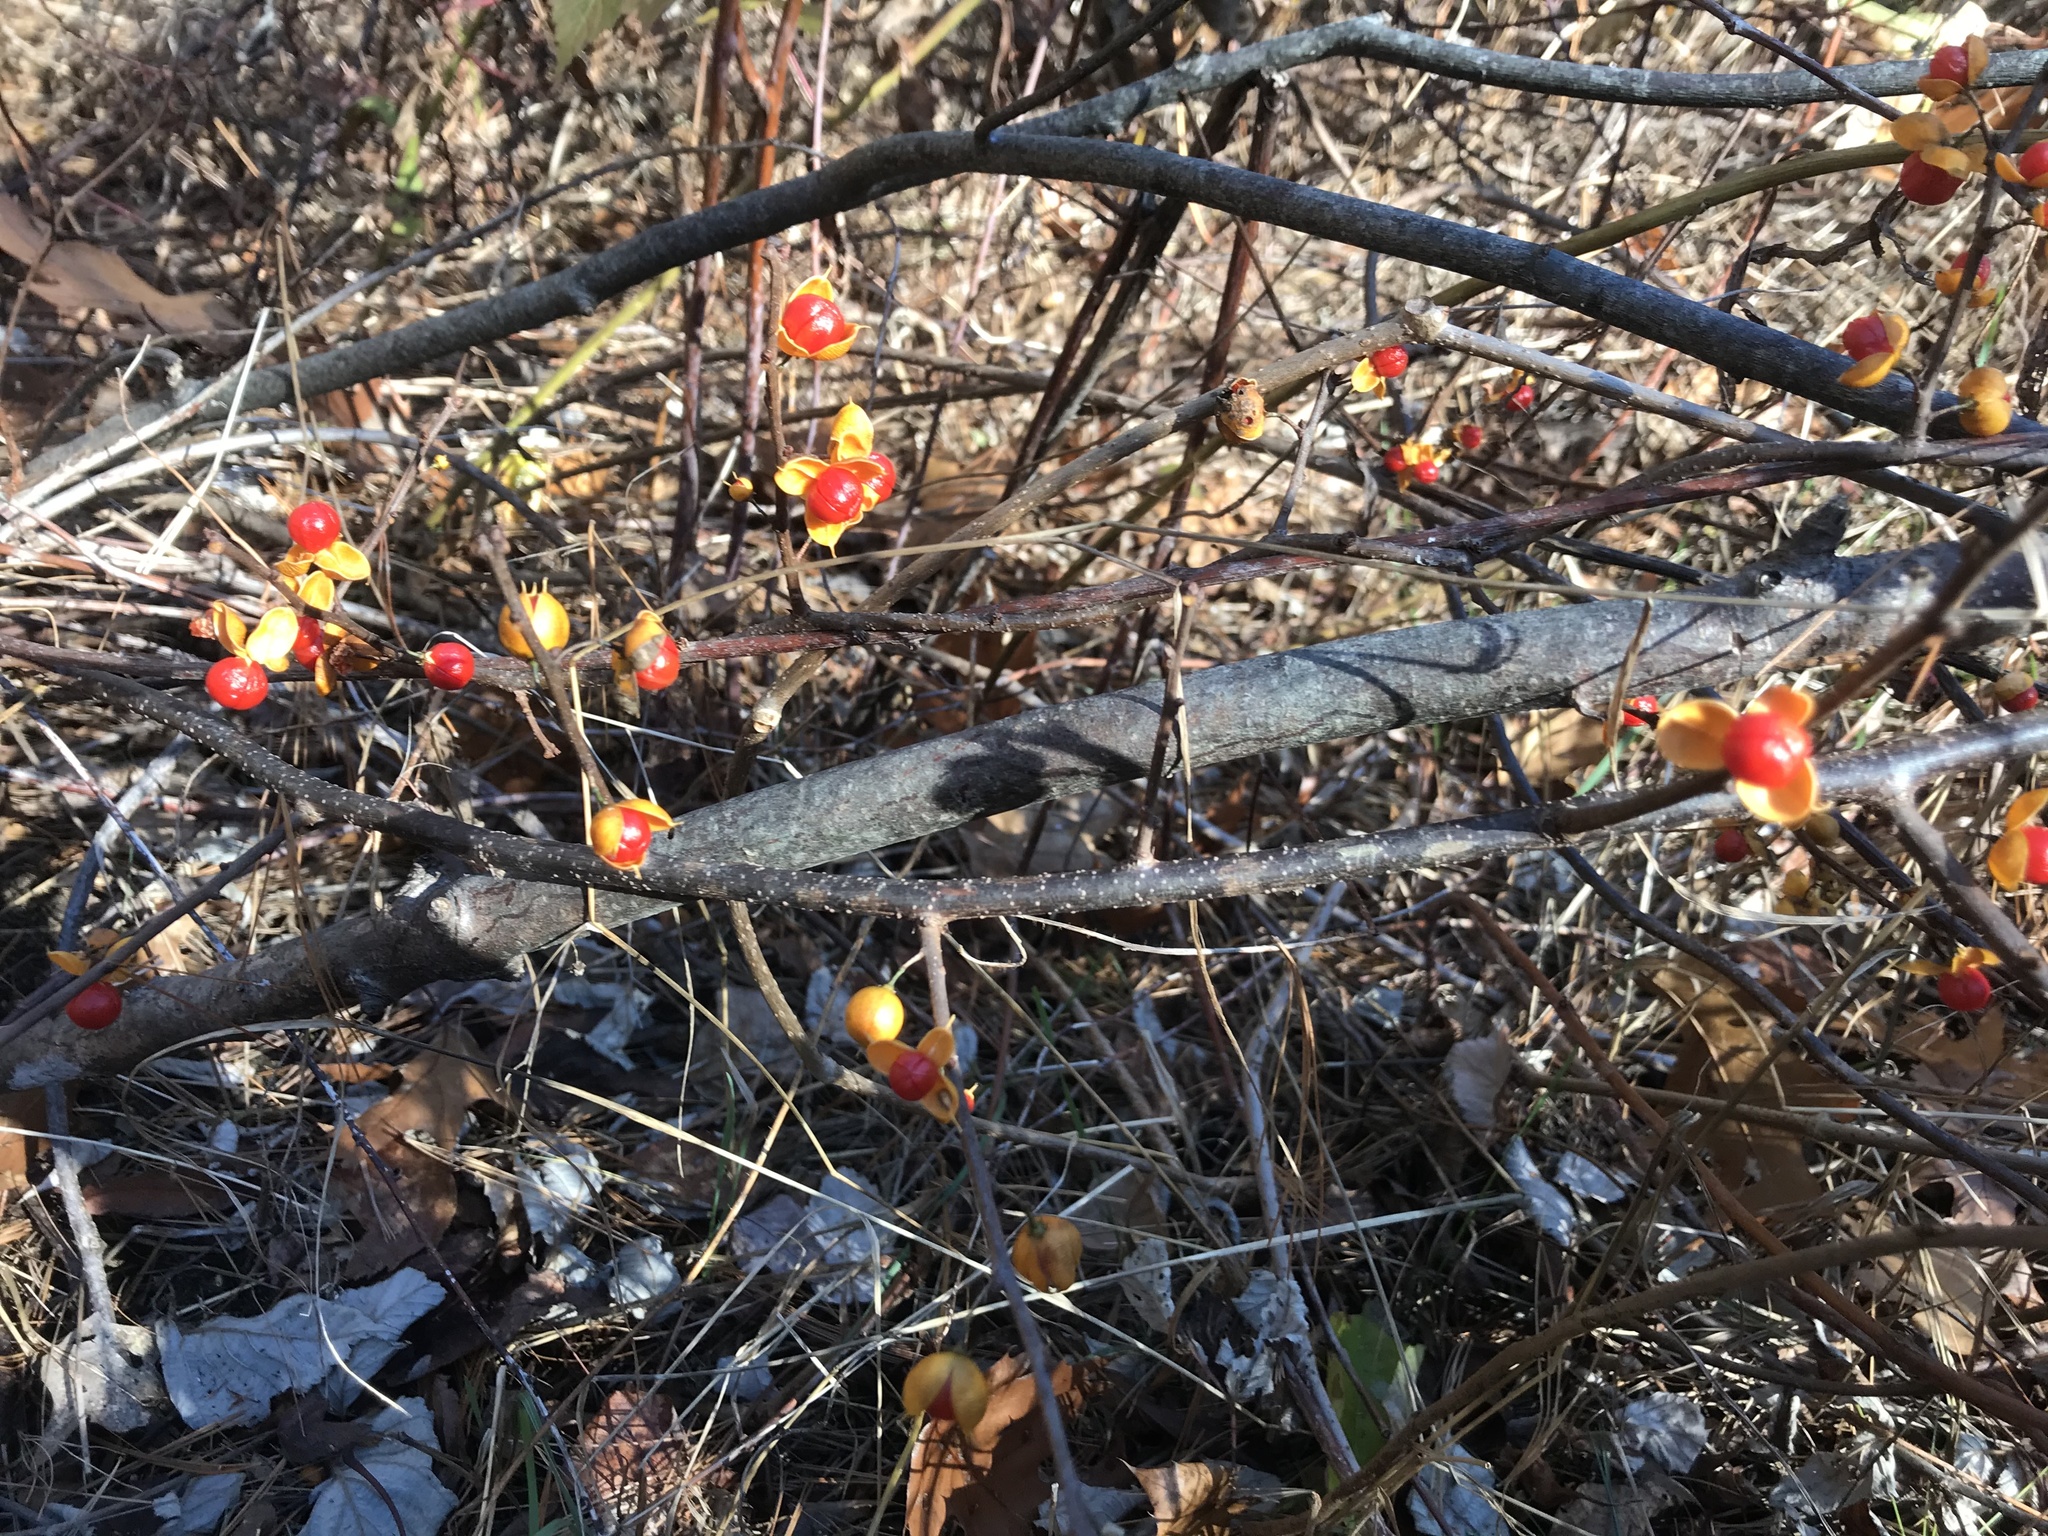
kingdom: Plantae
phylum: Tracheophyta
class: Magnoliopsida
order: Celastrales
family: Celastraceae
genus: Celastrus
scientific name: Celastrus orbiculatus
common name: Oriental bittersweet
